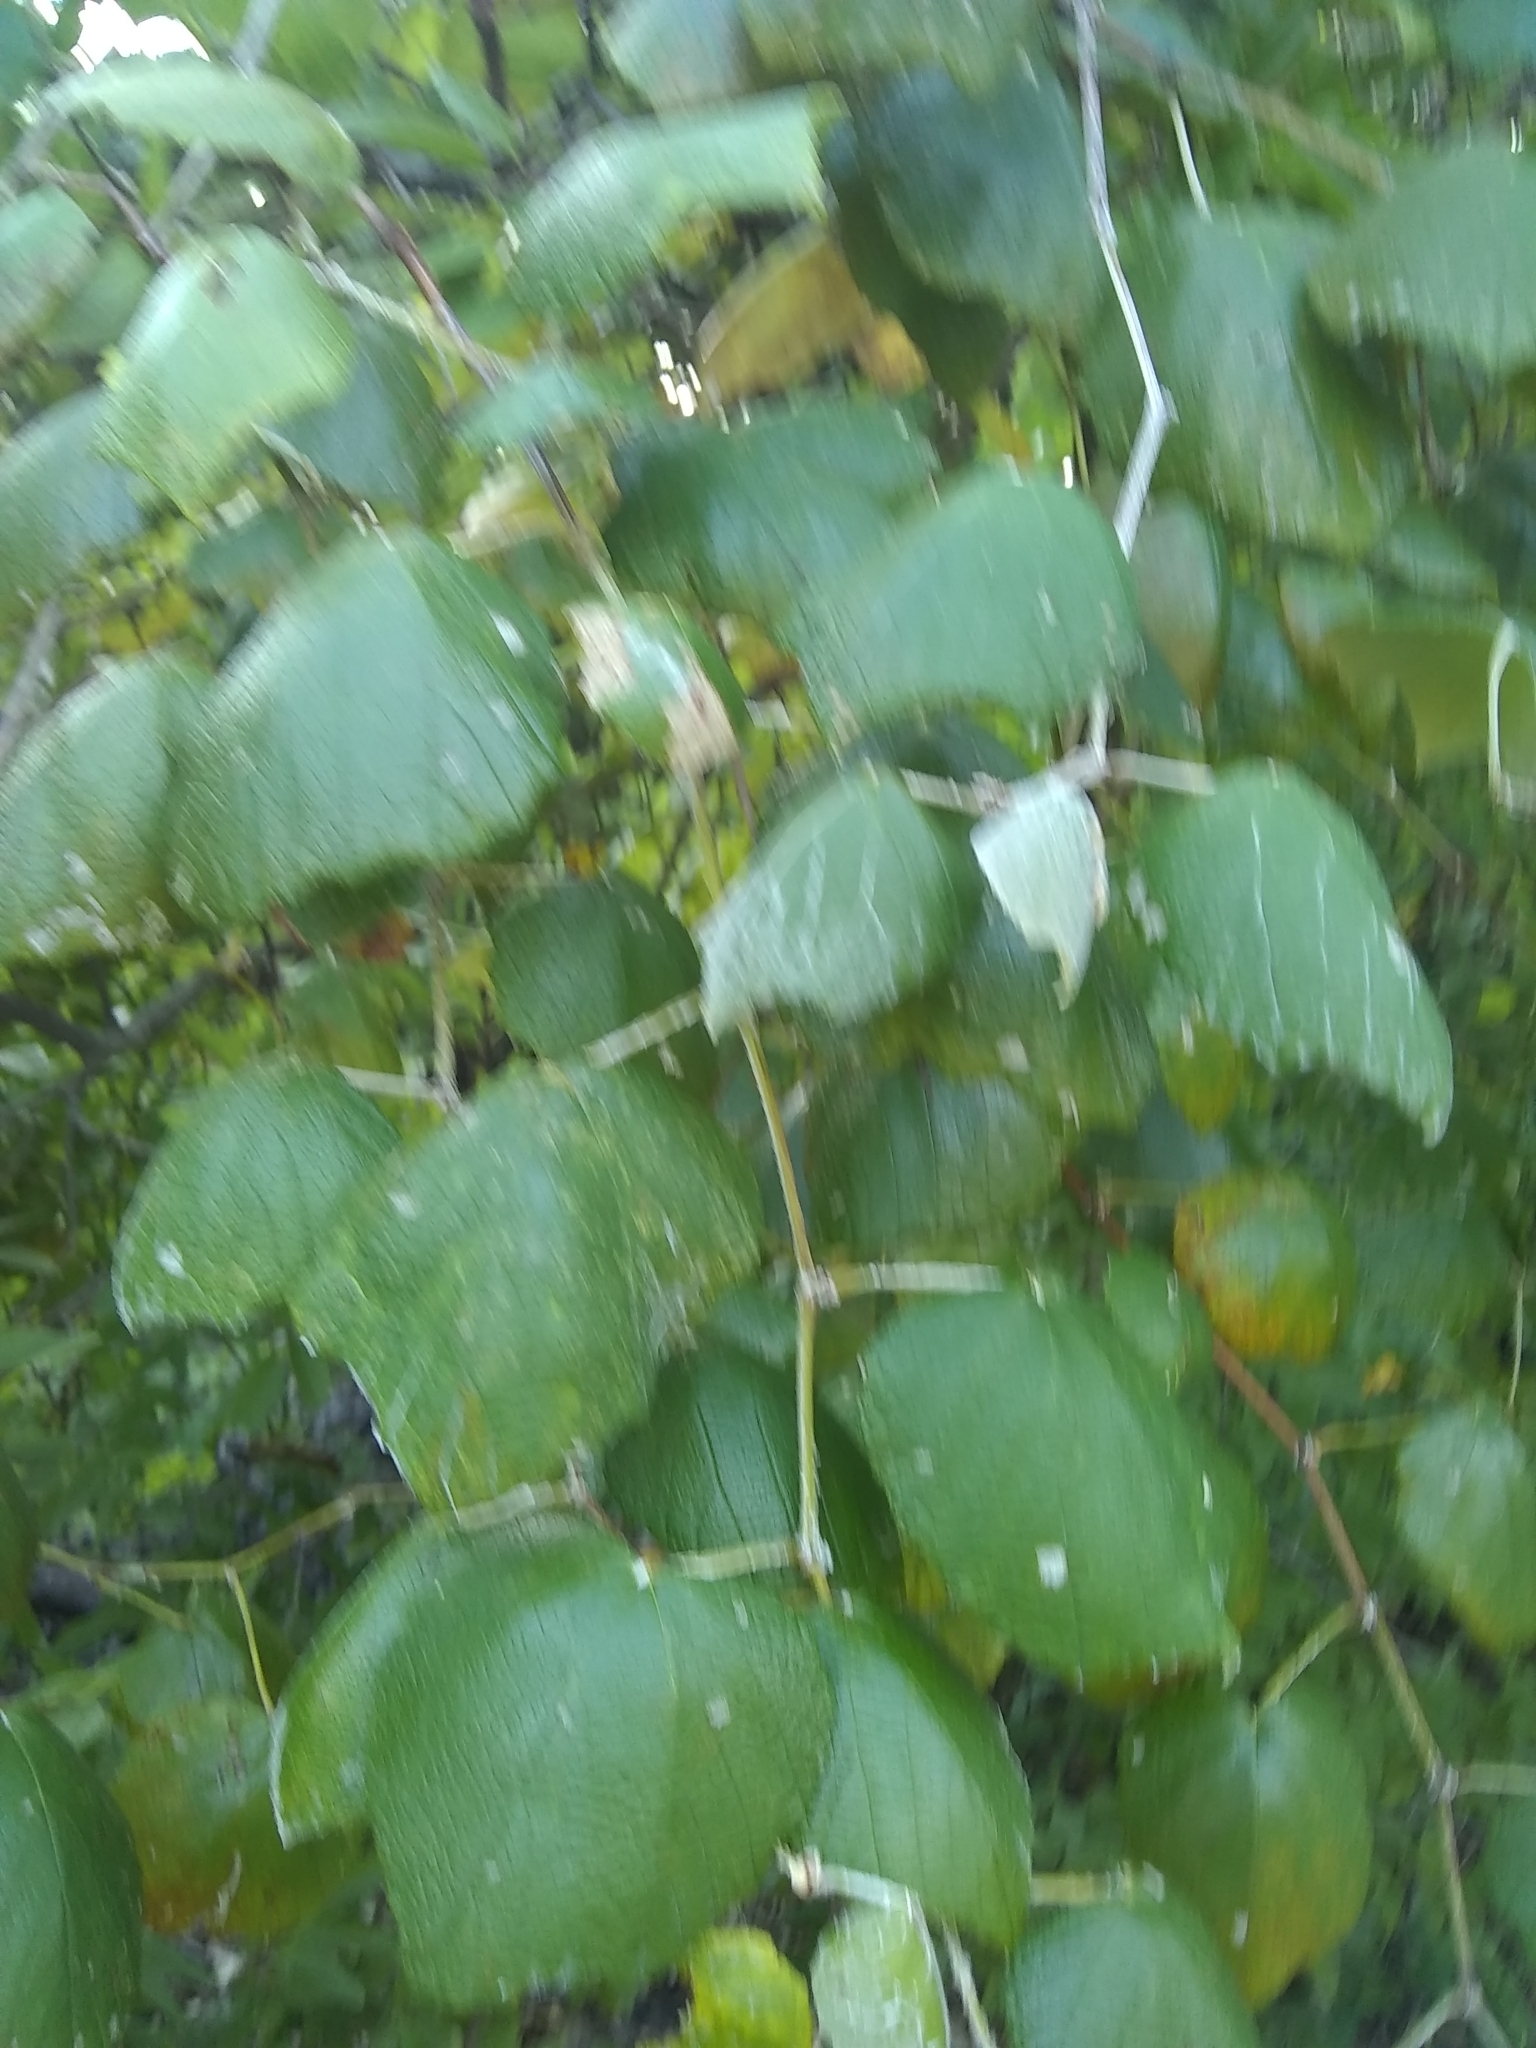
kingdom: Plantae
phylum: Tracheophyta
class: Magnoliopsida
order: Vitales
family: Vitaceae
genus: Vitis
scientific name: Vitis mustangensis
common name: Mustang grape
